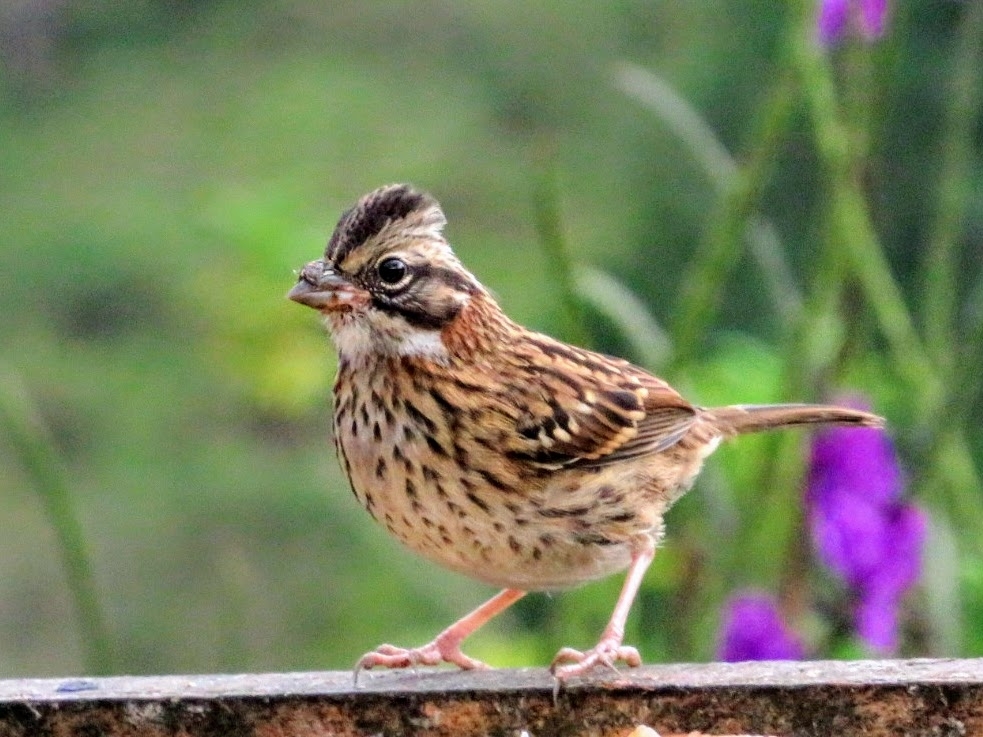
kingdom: Animalia
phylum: Chordata
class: Aves
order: Passeriformes
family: Passerellidae
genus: Zonotrichia
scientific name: Zonotrichia capensis
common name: Rufous-collared sparrow
